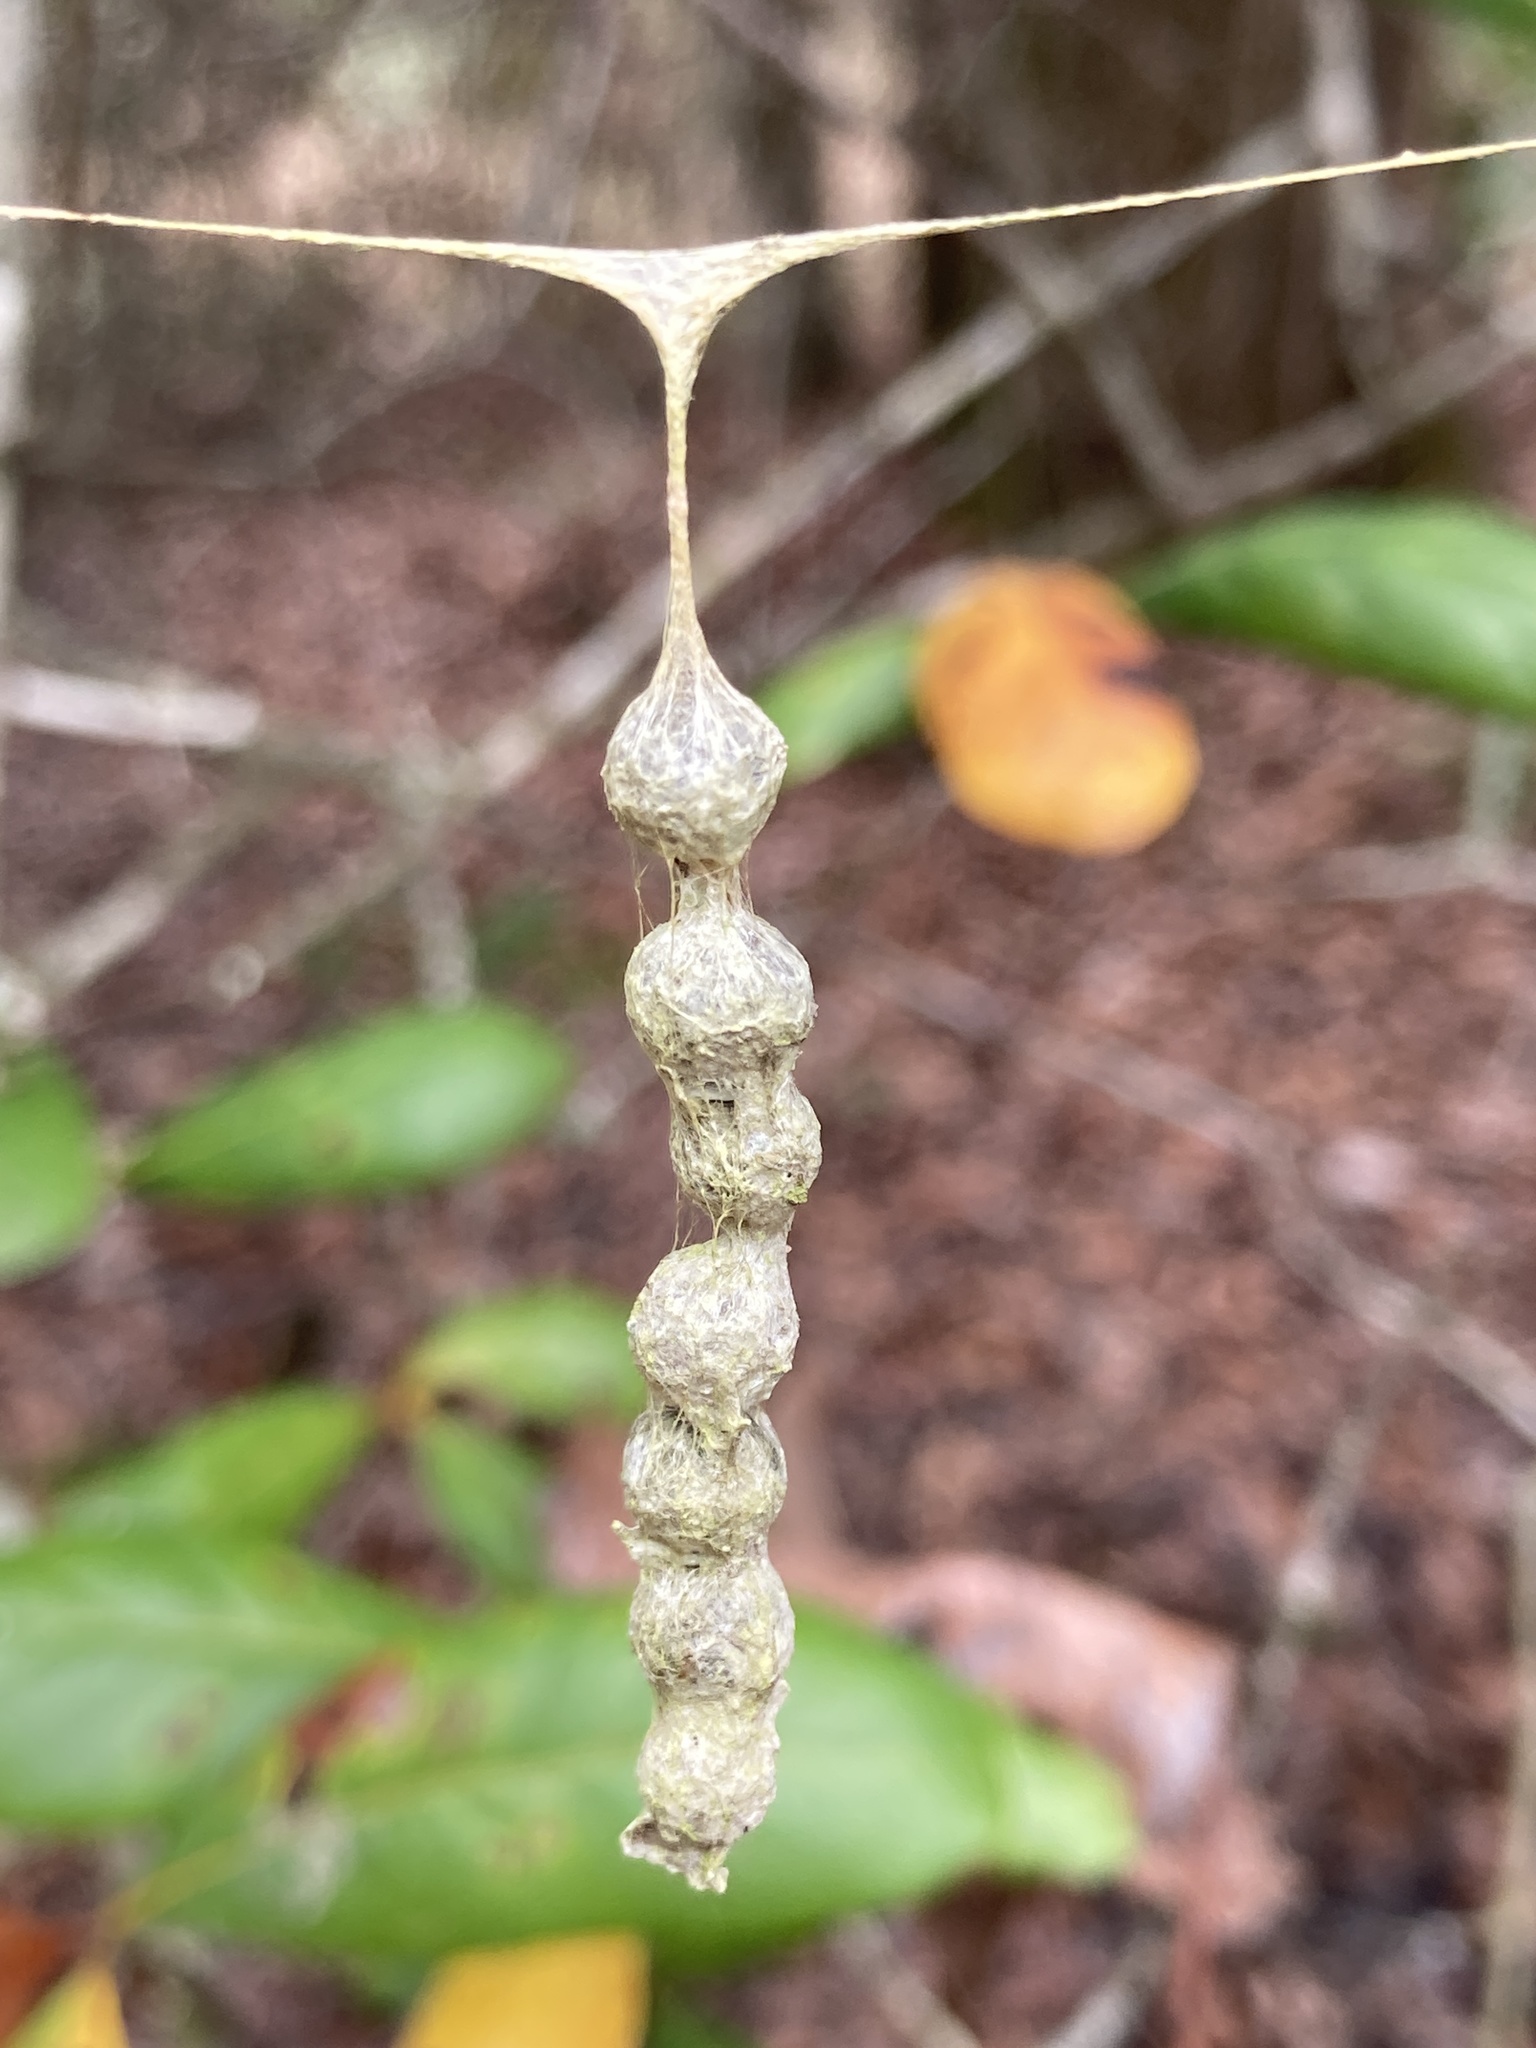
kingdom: Animalia
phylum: Arthropoda
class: Arachnida
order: Araneae
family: Araneidae
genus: Mecynogea
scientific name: Mecynogea lemniscata
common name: Orb weavers
